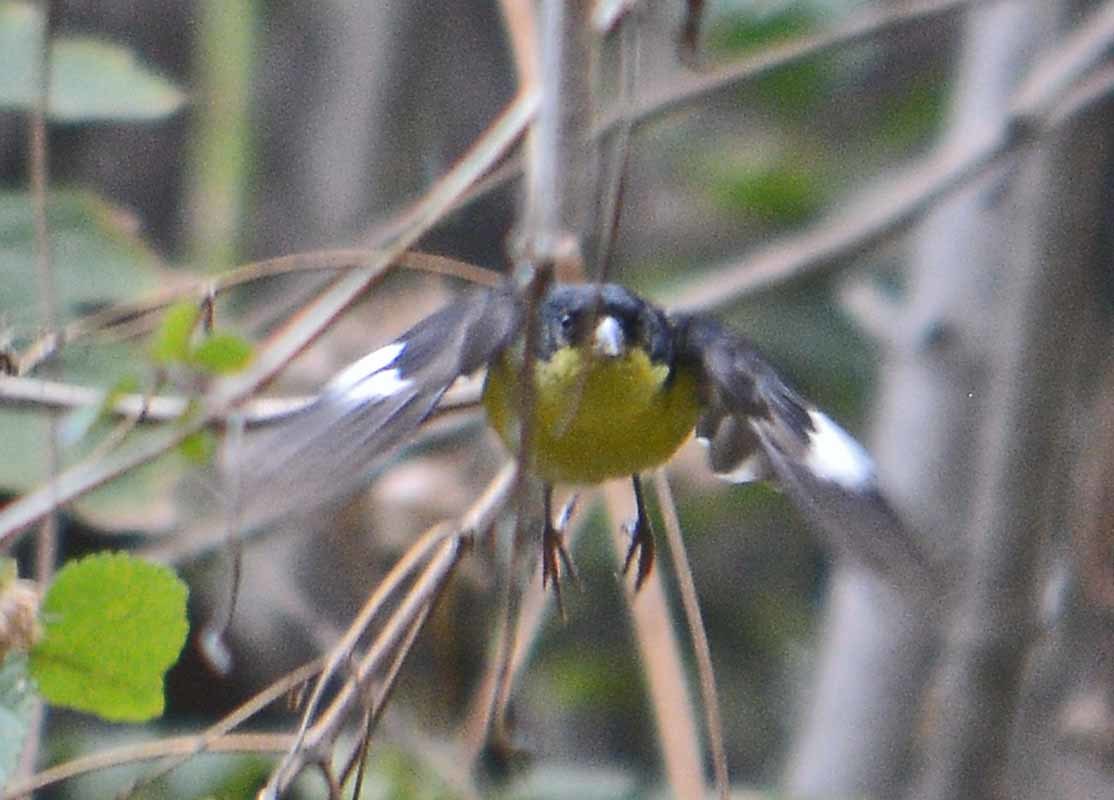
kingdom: Animalia
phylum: Chordata
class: Aves
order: Passeriformes
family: Fringillidae
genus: Spinus
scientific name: Spinus psaltria
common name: Lesser goldfinch
